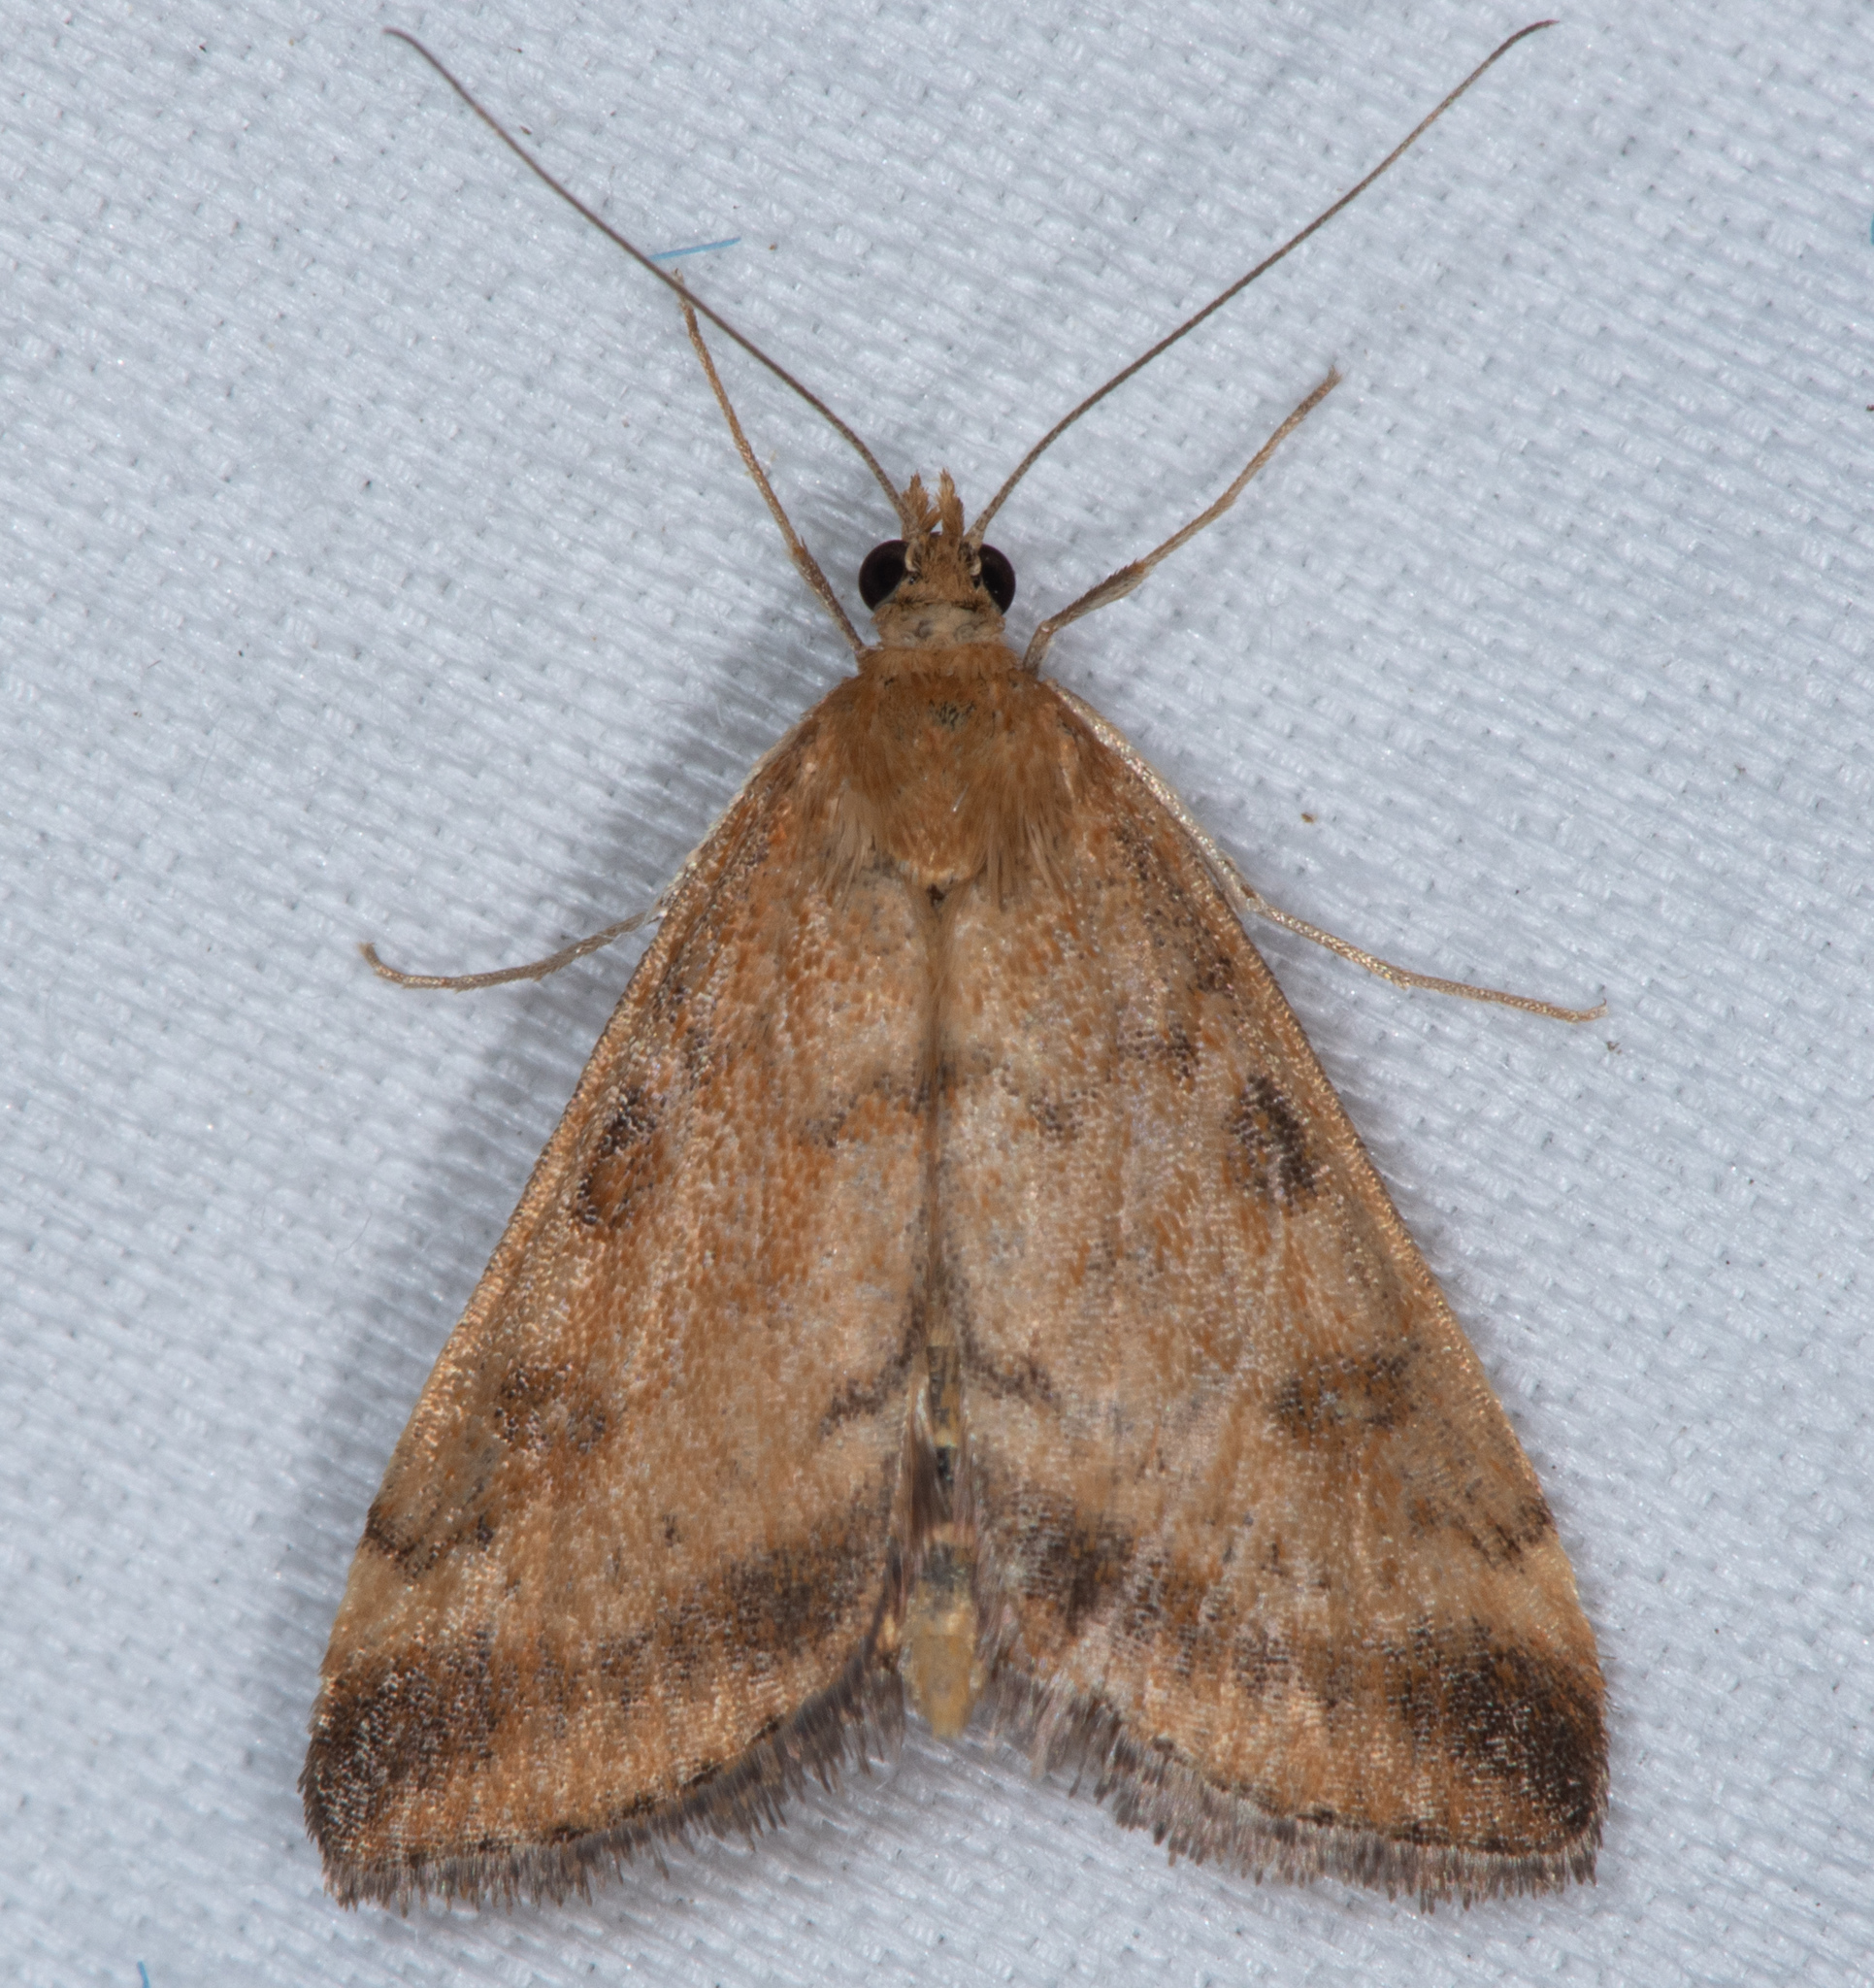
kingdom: Animalia
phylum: Arthropoda
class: Insecta
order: Lepidoptera
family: Crambidae
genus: Pyrausta
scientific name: Pyrausta subsequalis
